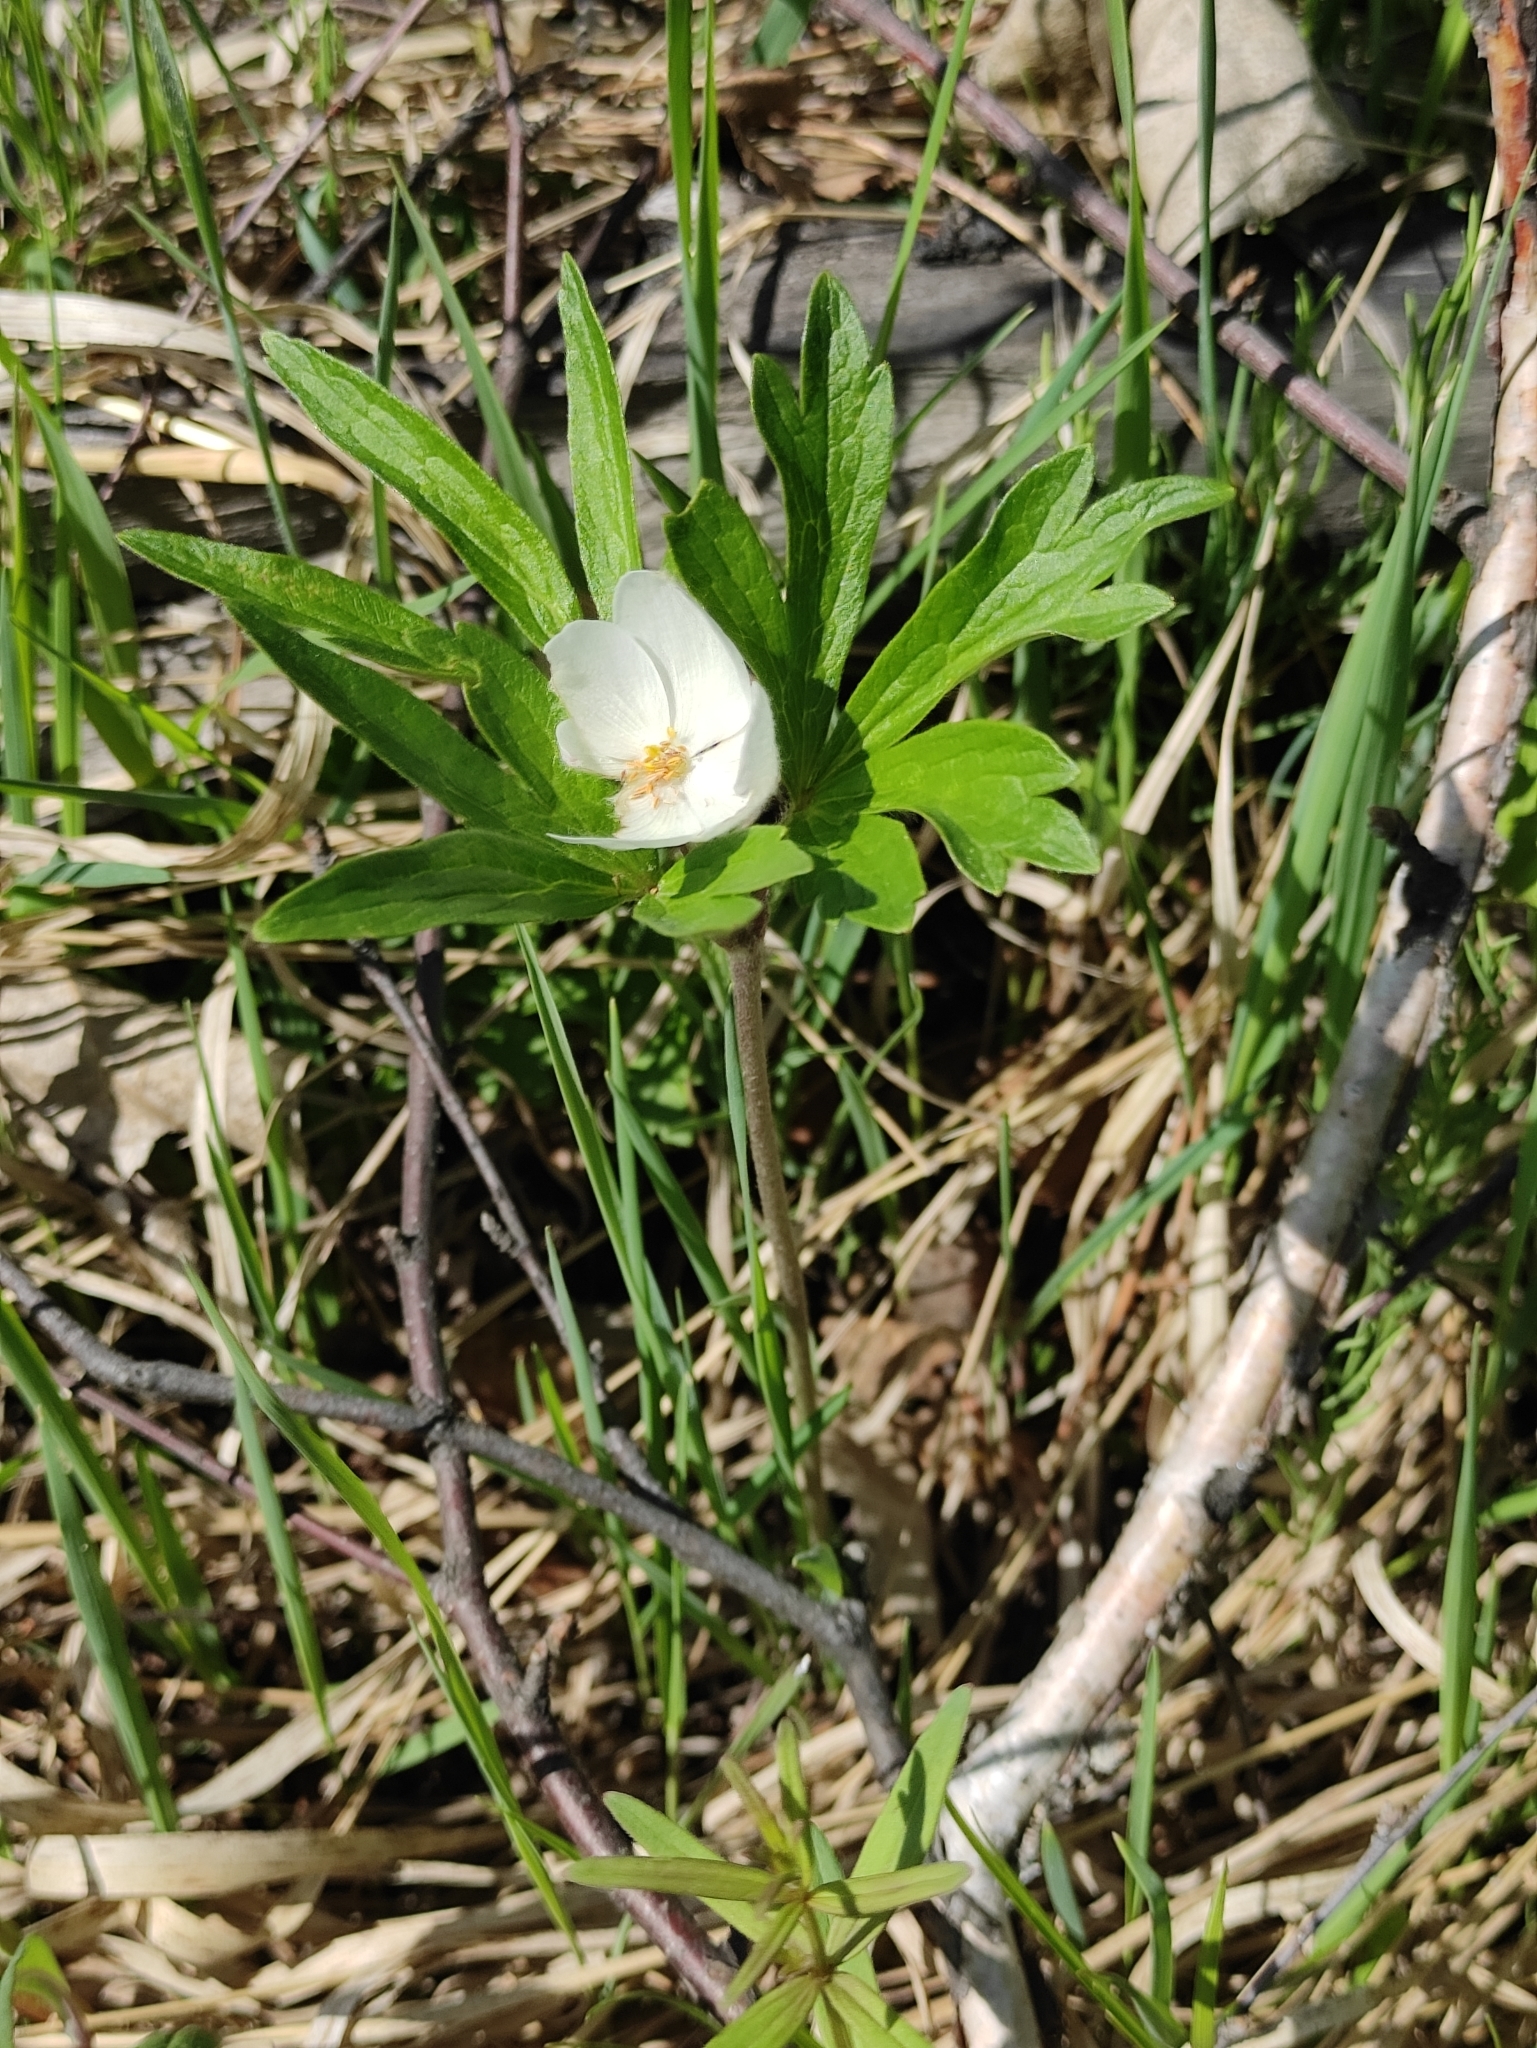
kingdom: Plantae
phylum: Tracheophyta
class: Magnoliopsida
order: Ranunculales
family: Ranunculaceae
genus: Anemonastrum
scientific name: Anemonastrum narcissiflorum
